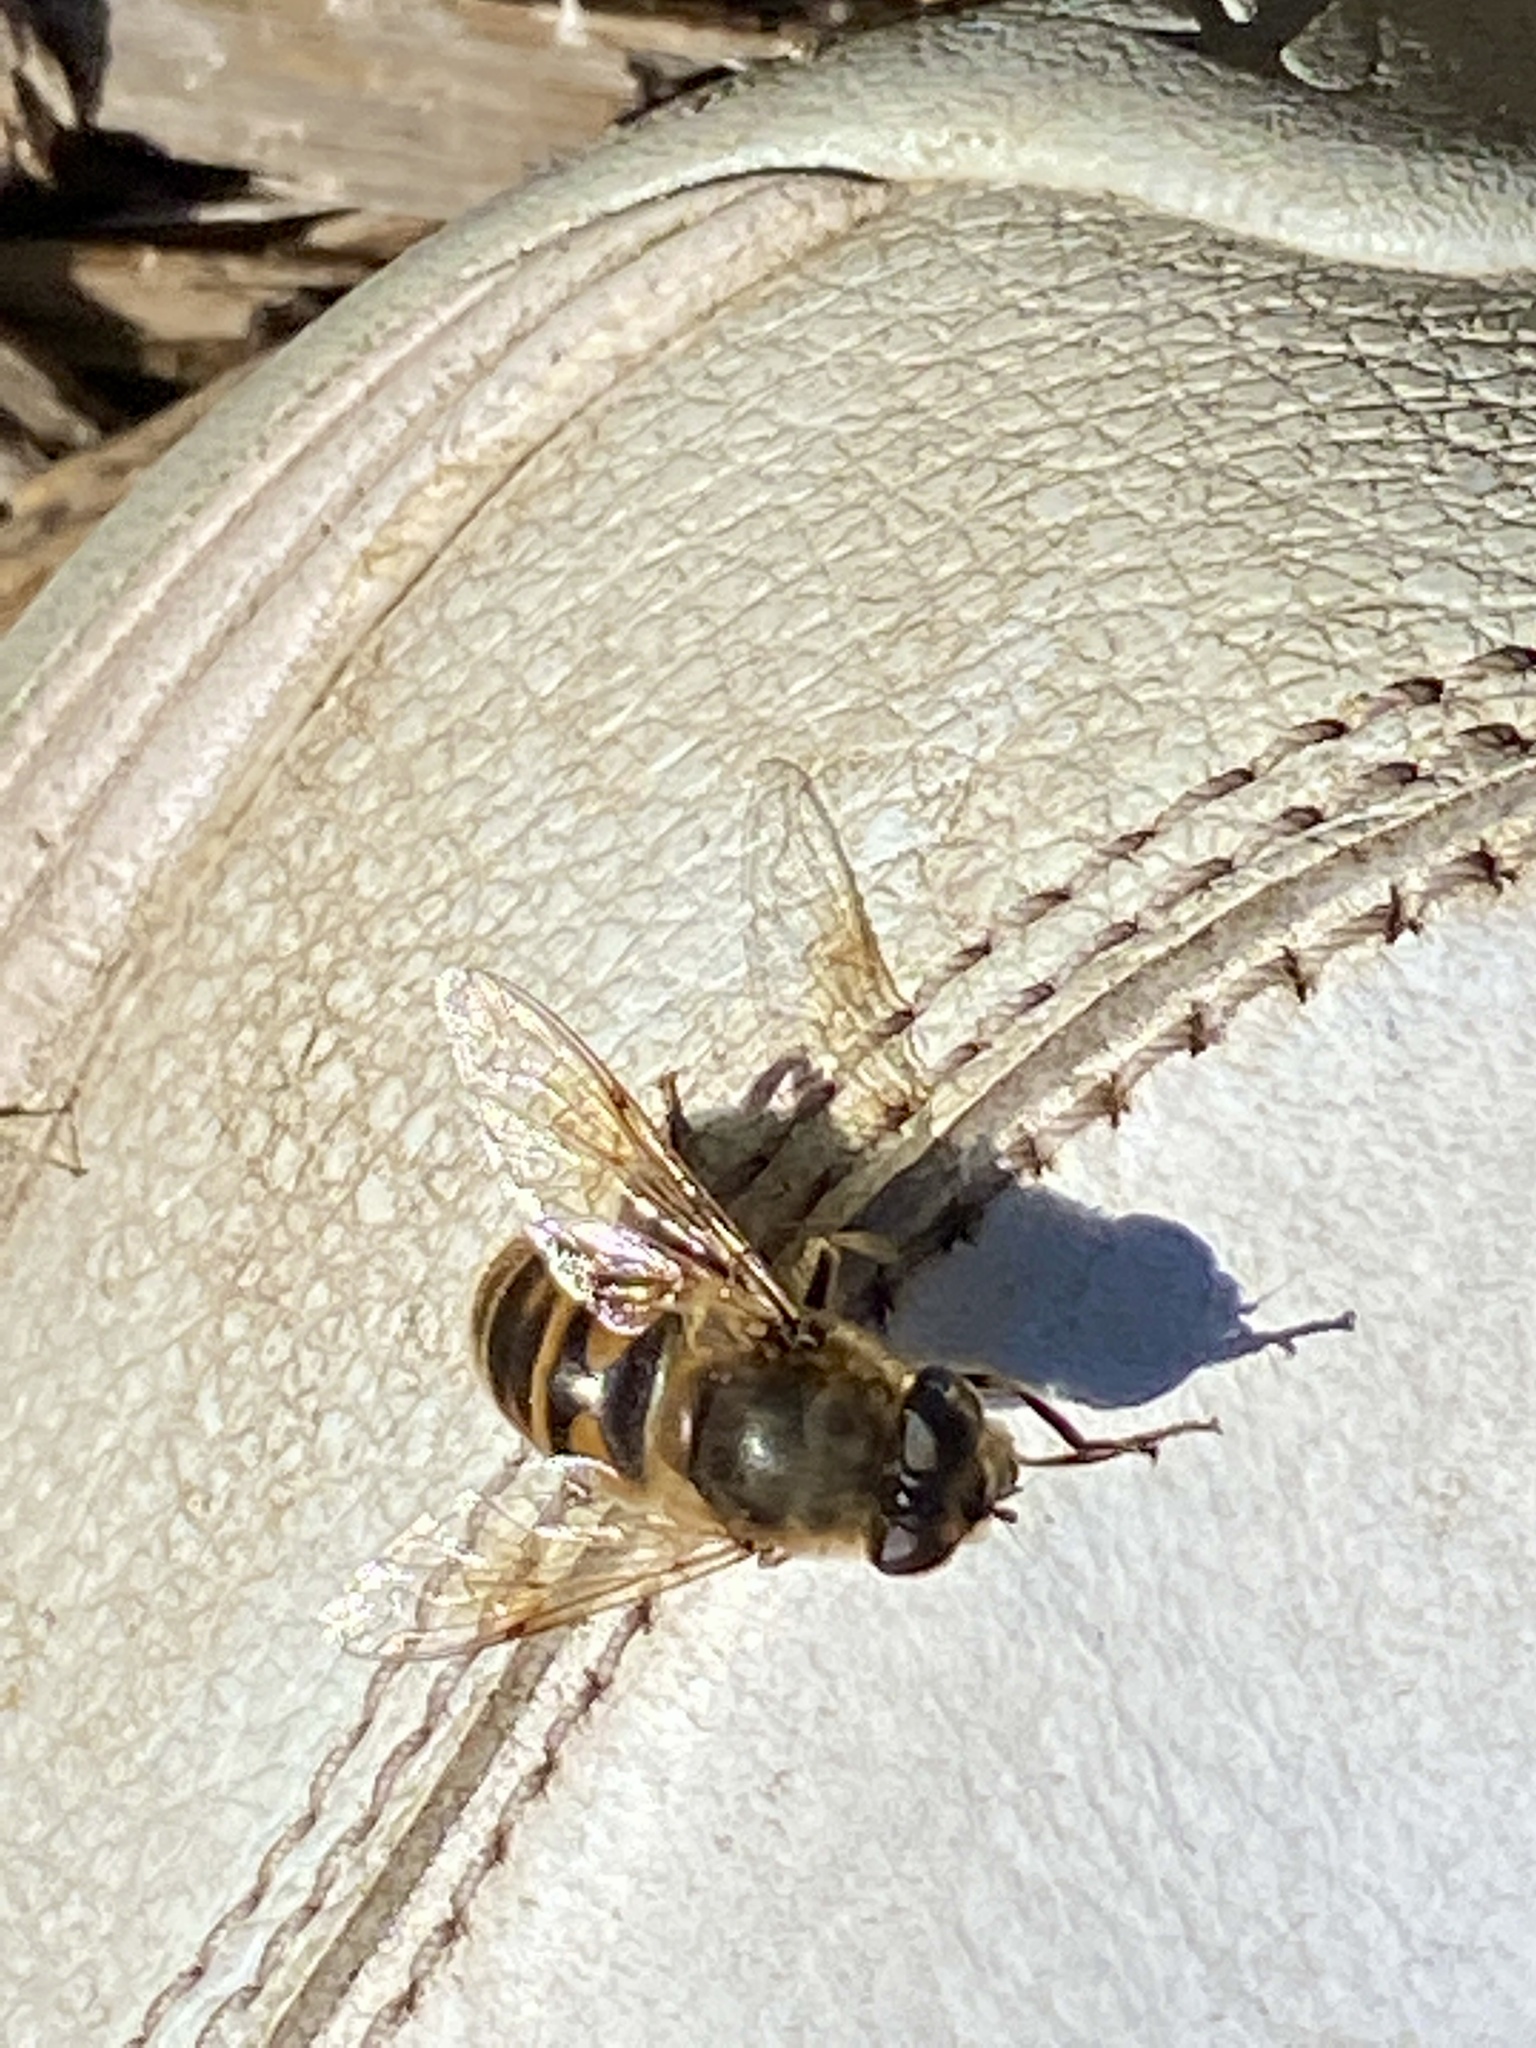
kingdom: Animalia
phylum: Arthropoda
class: Insecta
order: Diptera
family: Syrphidae
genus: Eristalis
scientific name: Eristalis tenax
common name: Drone fly
